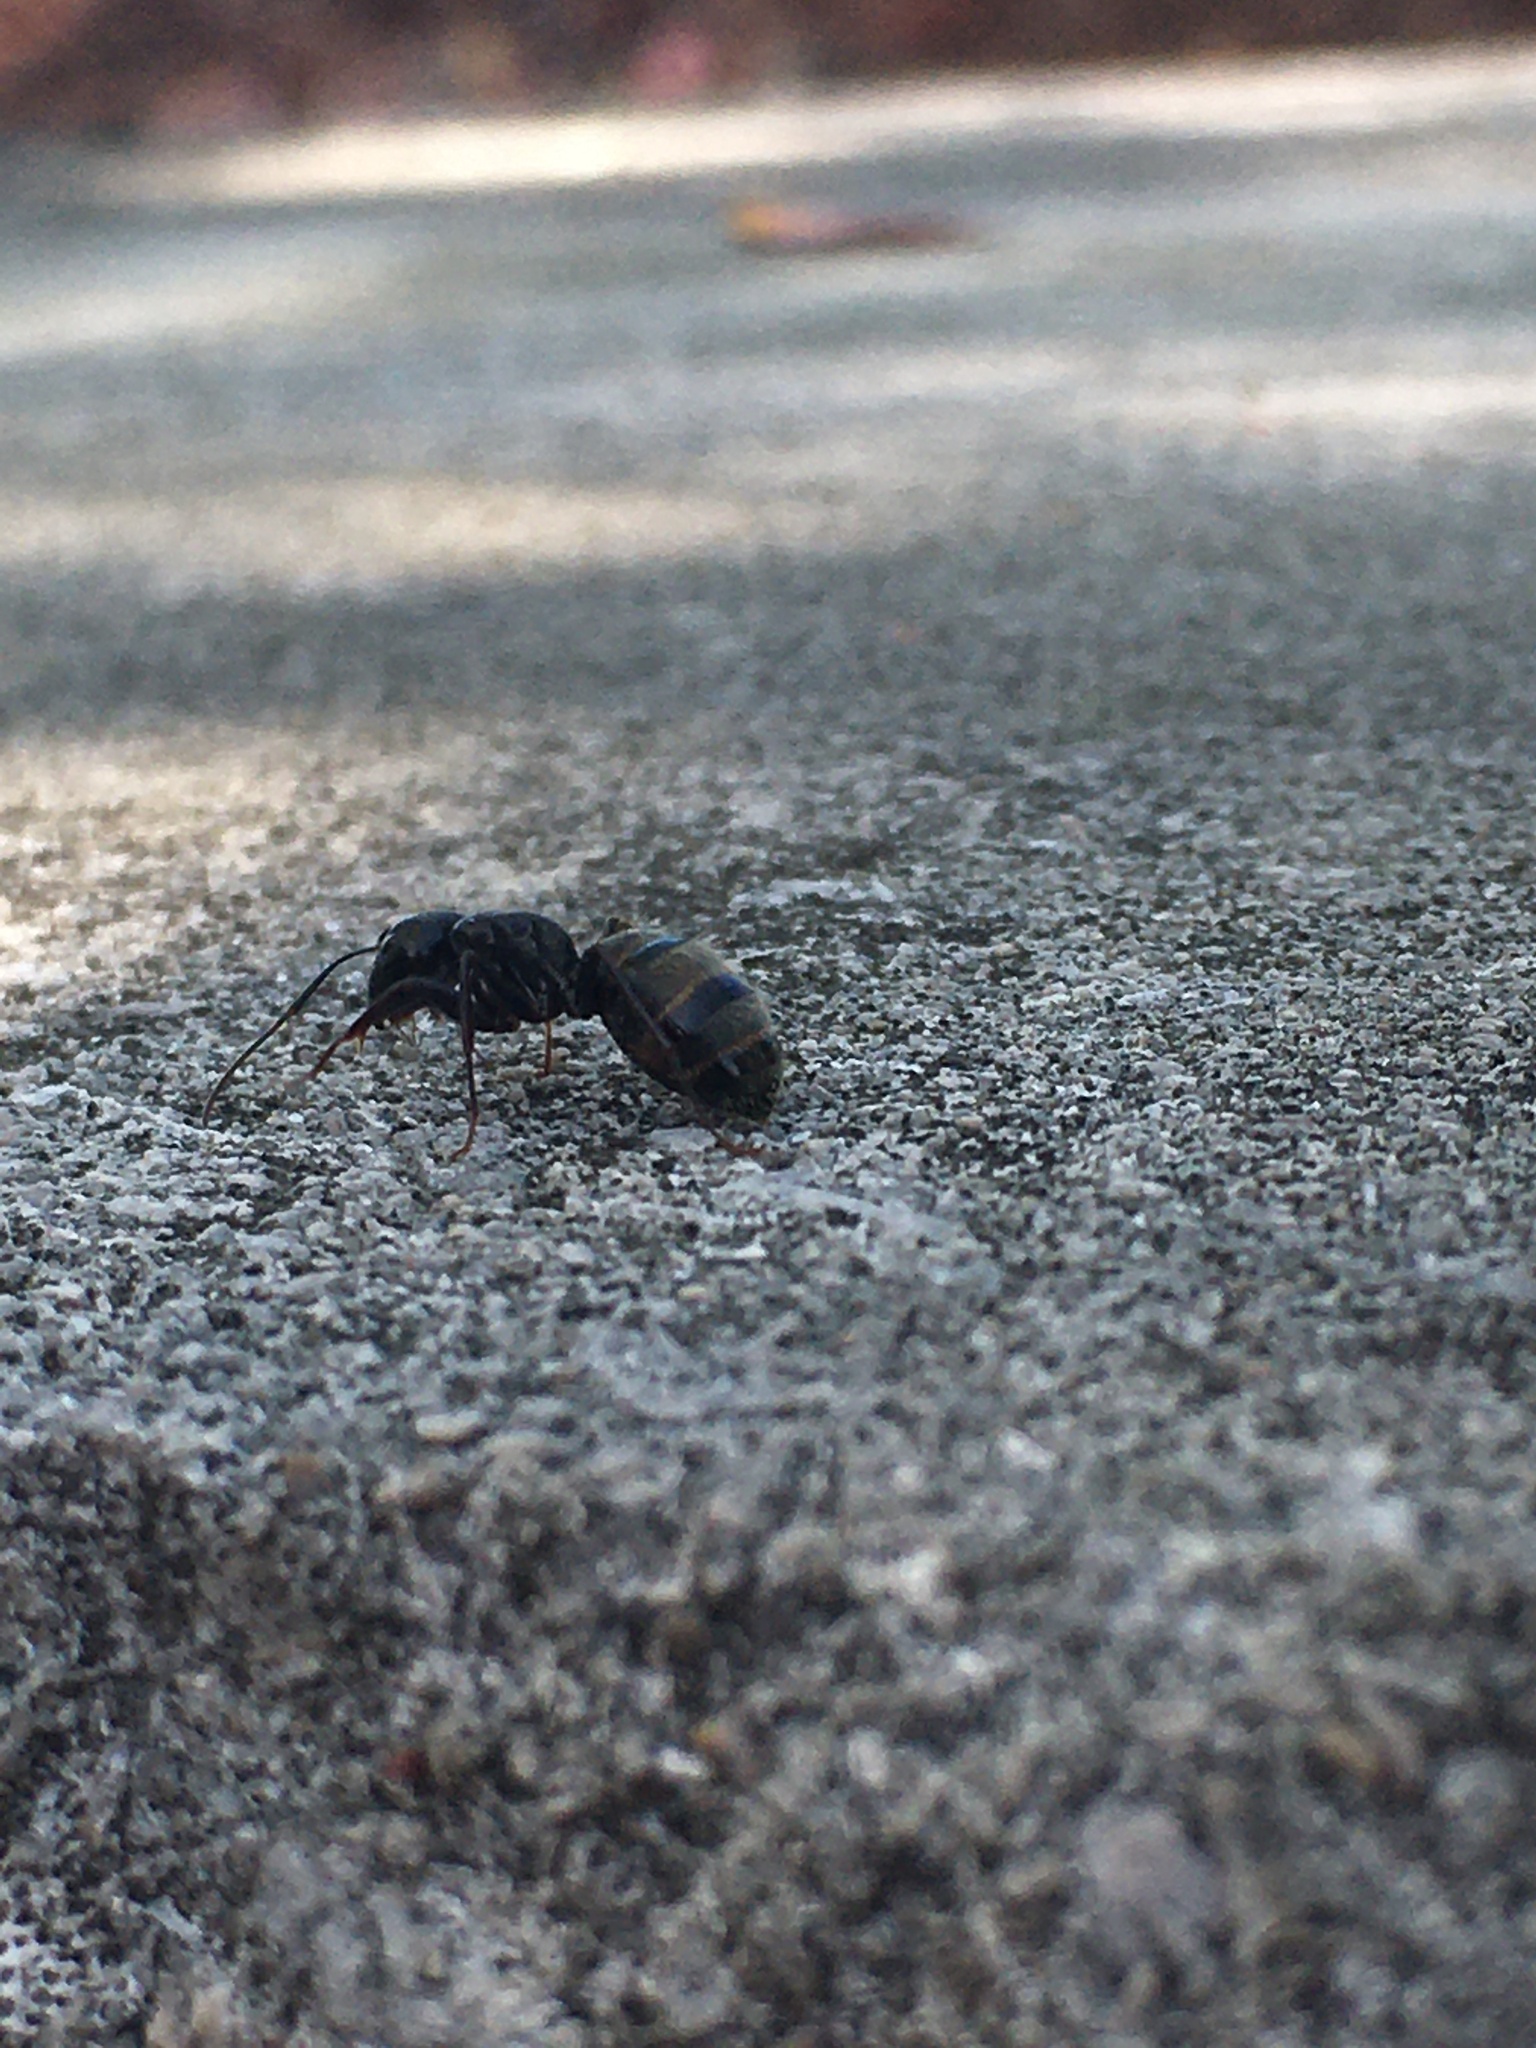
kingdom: Animalia
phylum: Arthropoda
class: Insecta
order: Hymenoptera
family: Formicidae
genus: Camponotus
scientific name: Camponotus pennsylvanicus
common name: Black carpenter ant
